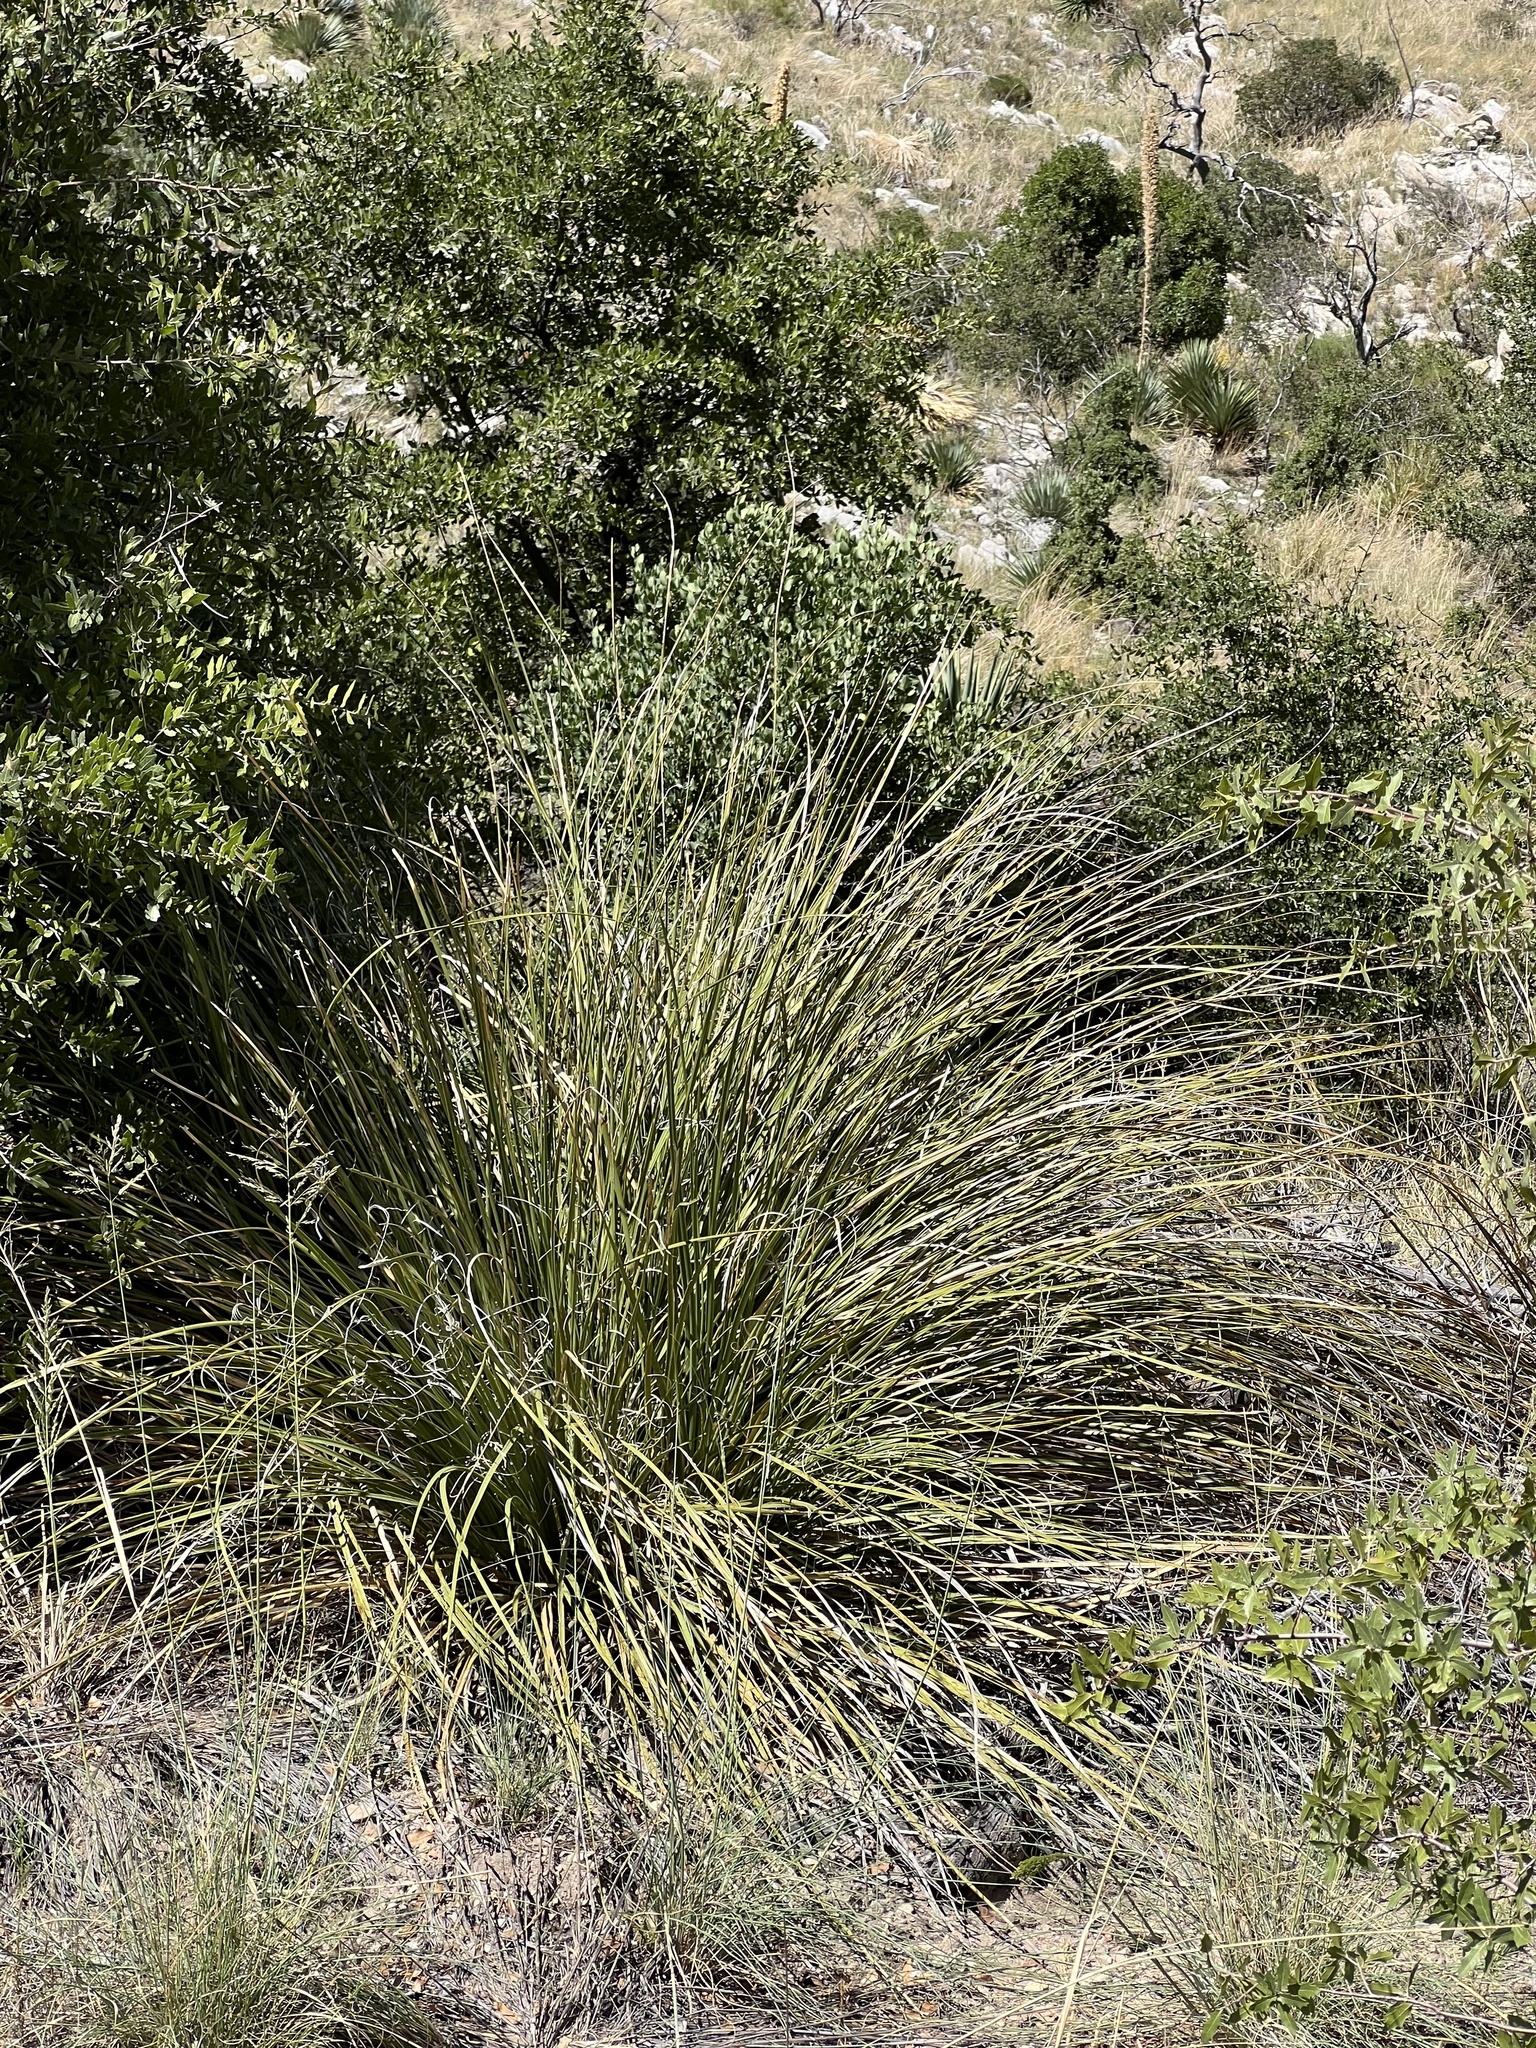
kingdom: Plantae
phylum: Tracheophyta
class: Liliopsida
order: Asparagales
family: Asparagaceae
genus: Nolina
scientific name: Nolina microcarpa
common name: Bear-grass
